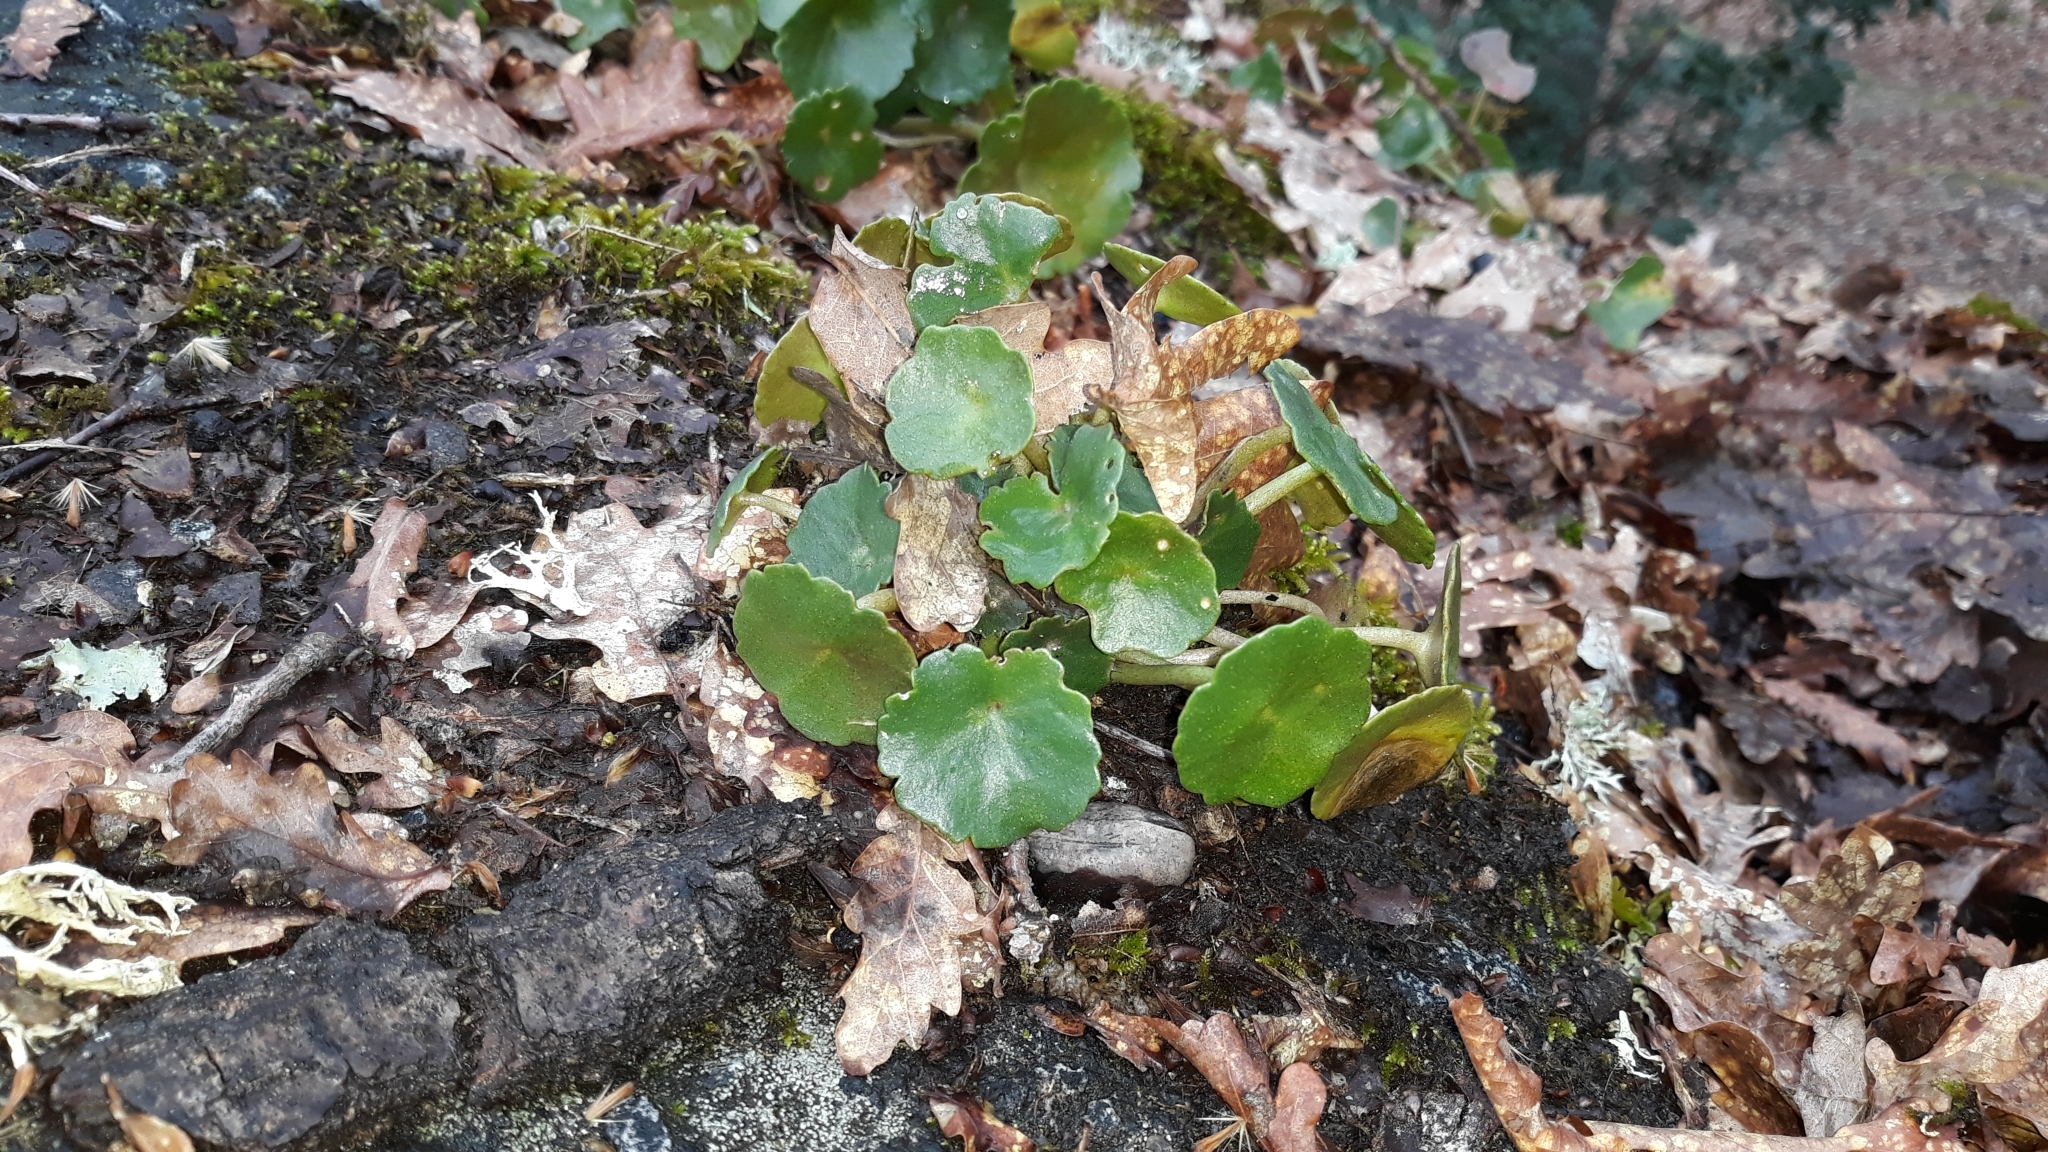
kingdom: Plantae
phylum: Tracheophyta
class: Magnoliopsida
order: Saxifragales
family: Crassulaceae
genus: Umbilicus
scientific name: Umbilicus rupestris
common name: Navelwort
